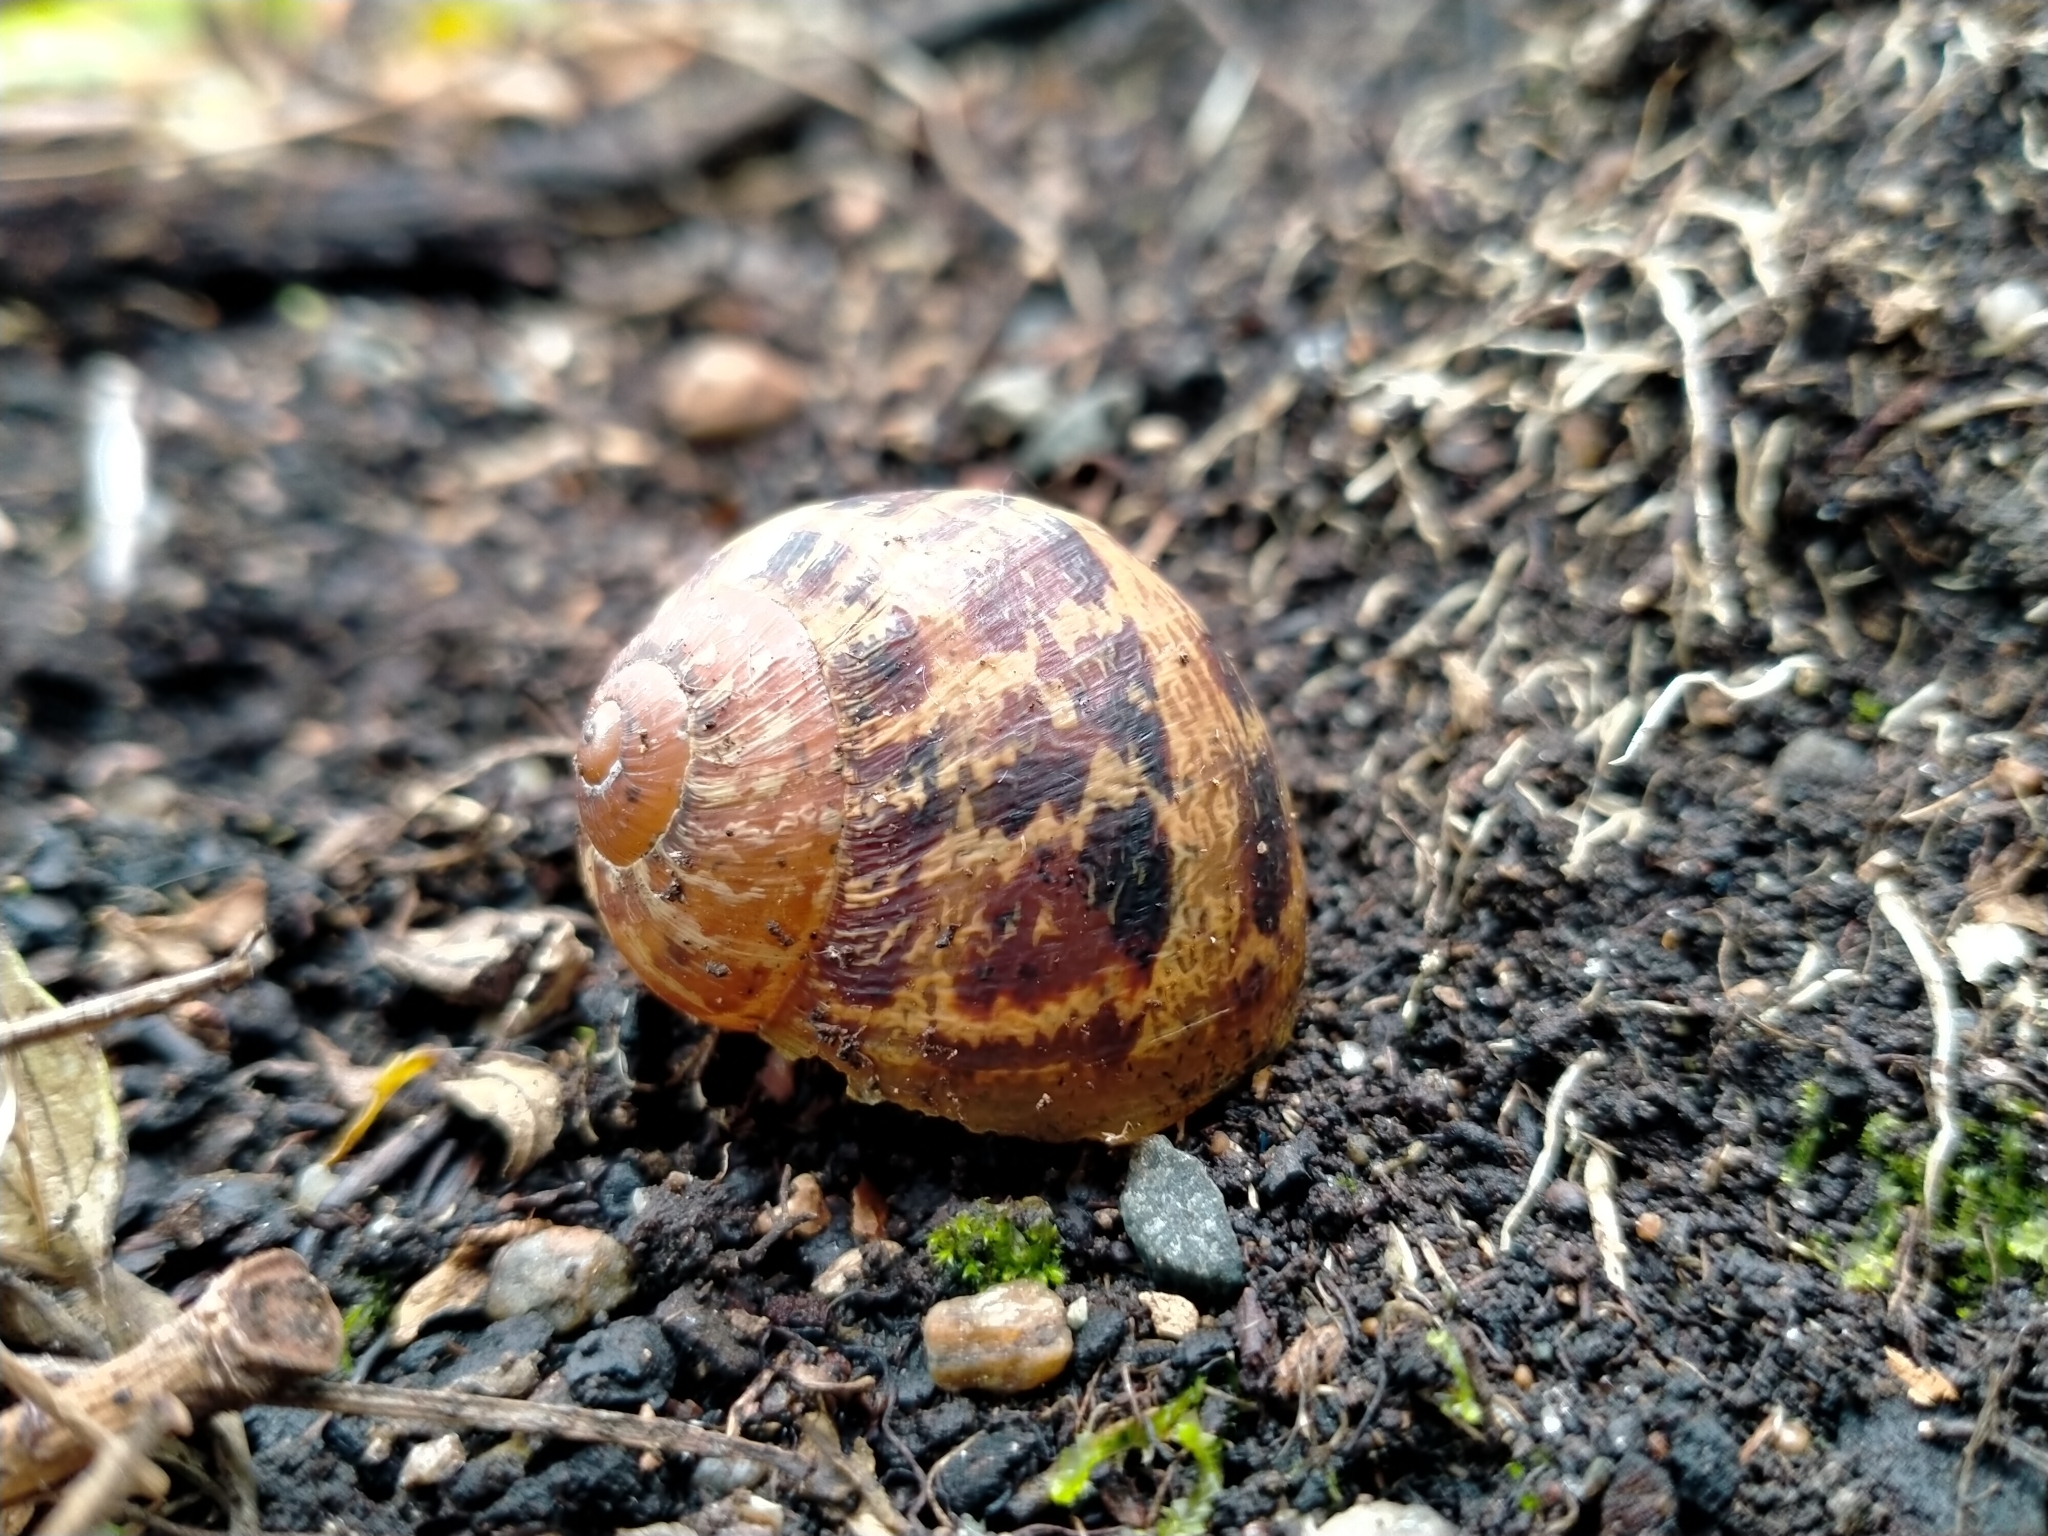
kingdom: Animalia
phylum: Mollusca
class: Gastropoda
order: Stylommatophora
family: Helicidae
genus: Cornu
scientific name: Cornu aspersum
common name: Brown garden snail
